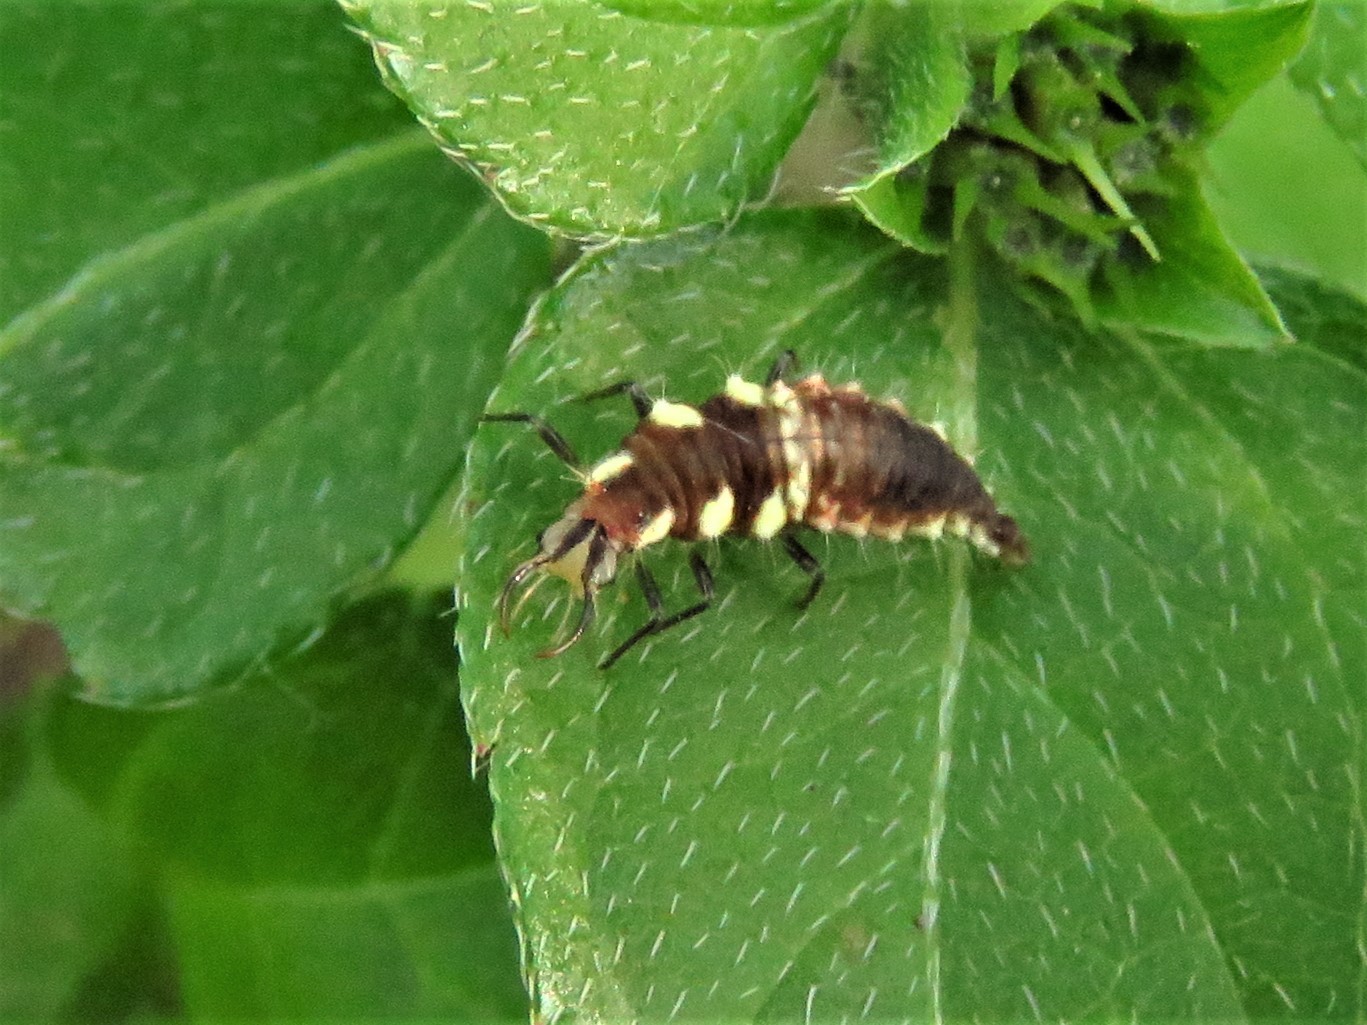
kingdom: Animalia
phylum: Arthropoda
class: Insecta
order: Neuroptera
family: Chrysopidae
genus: Chrysoperla
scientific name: Chrysoperla rufilabris
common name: Red-lipped green lacewing
